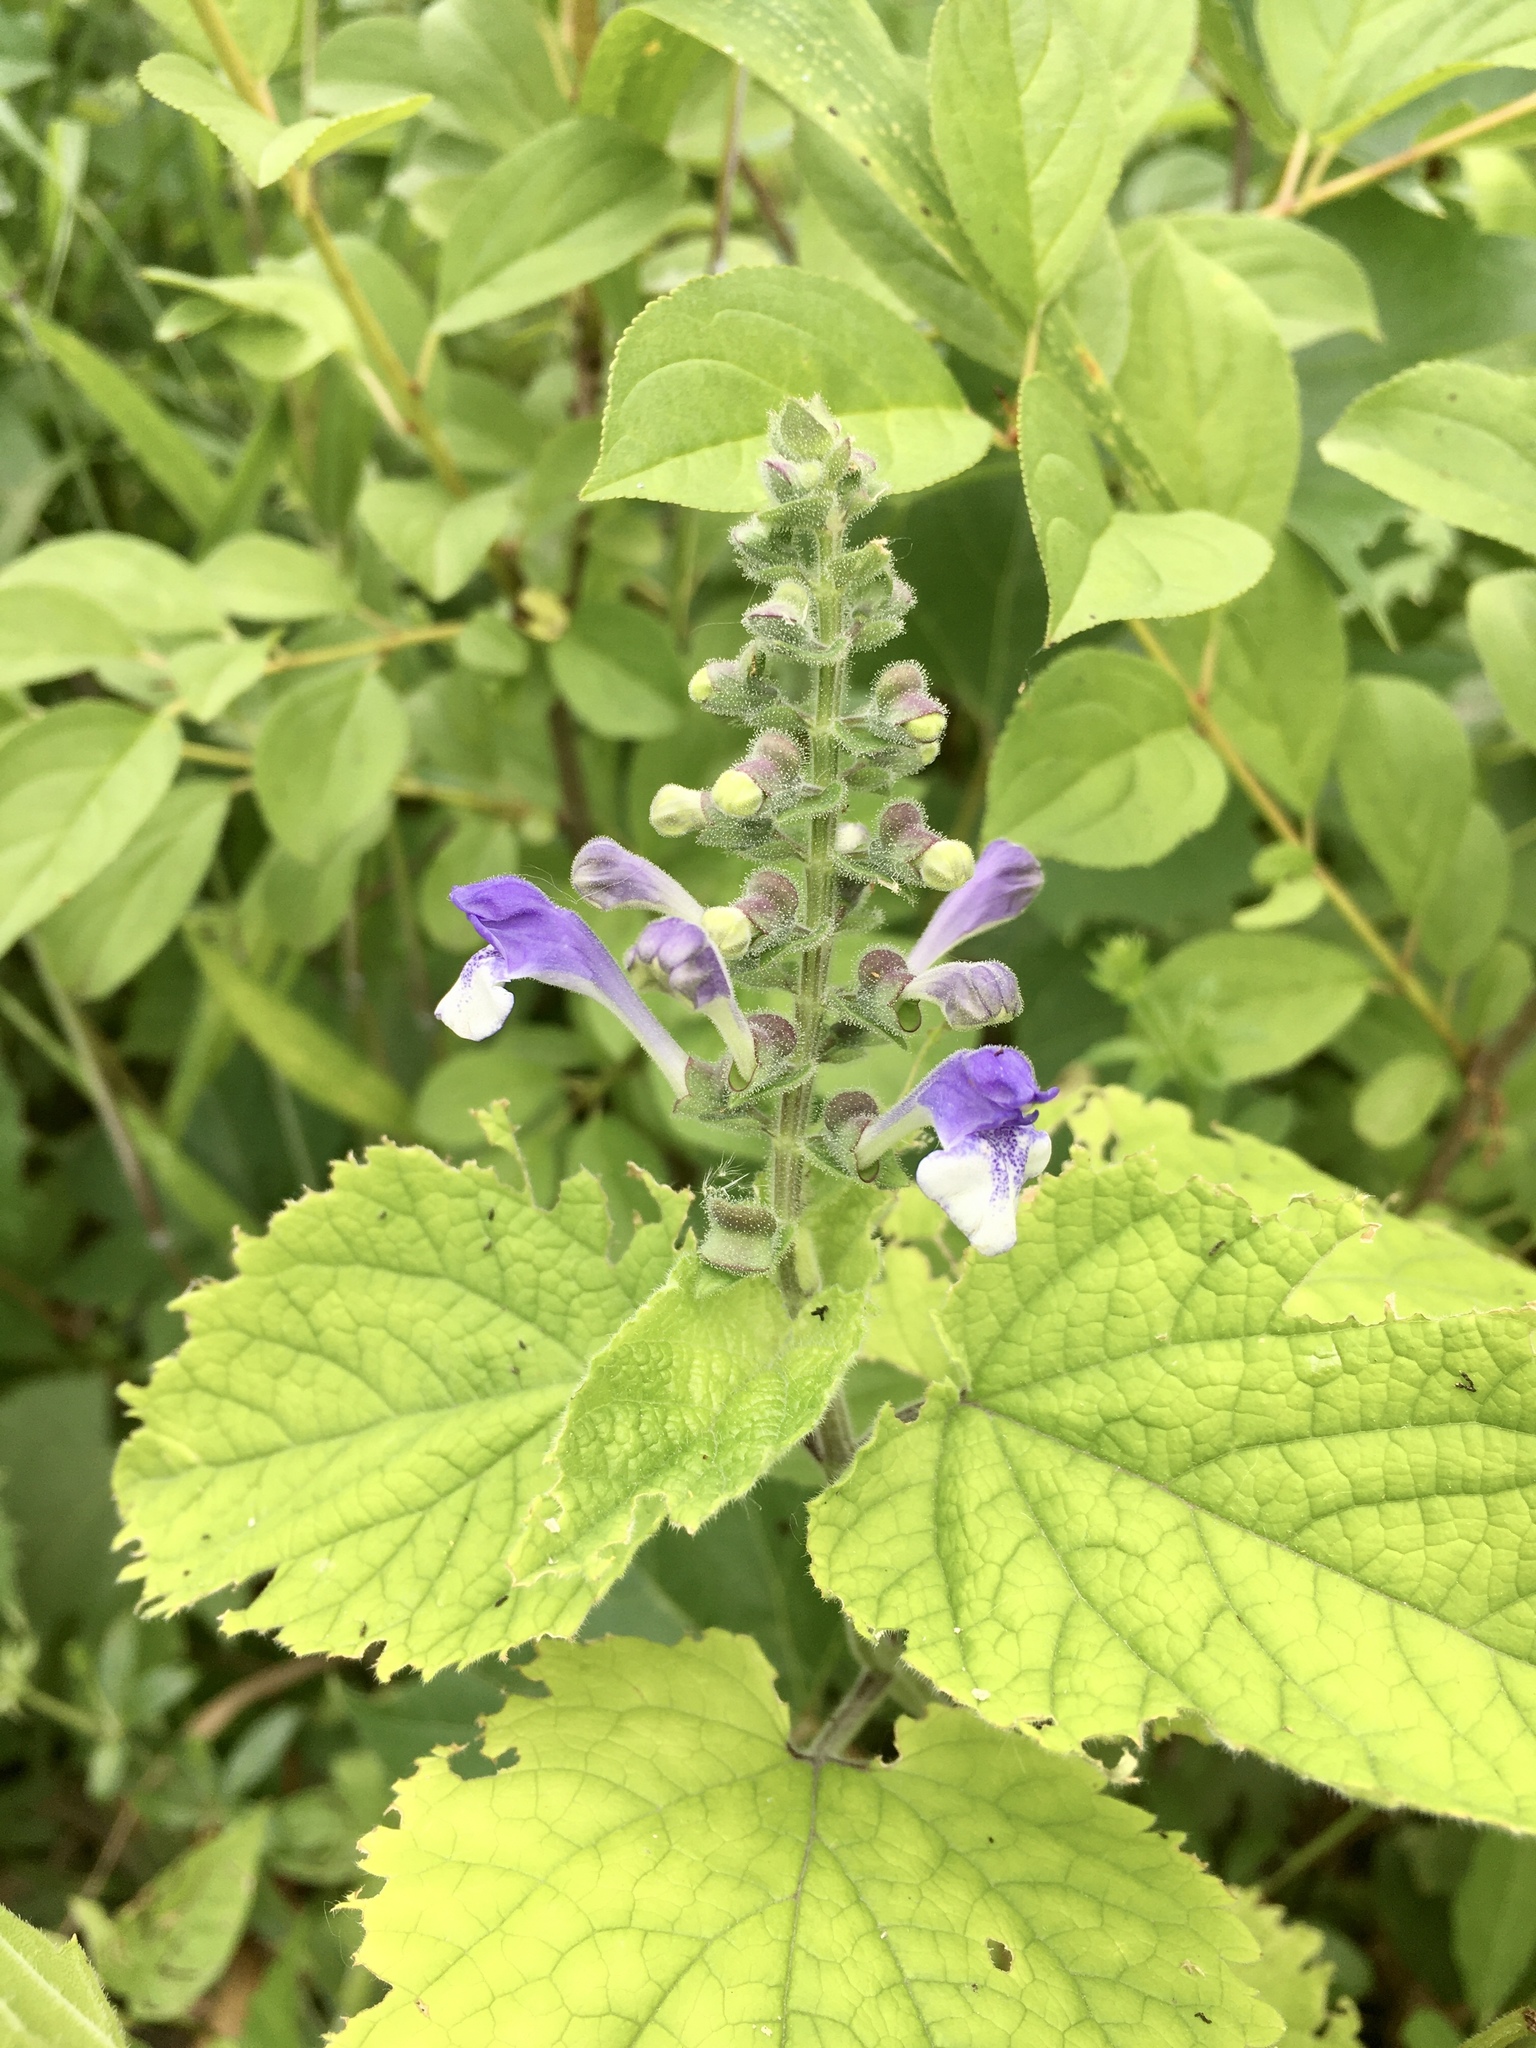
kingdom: Plantae
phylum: Tracheophyta
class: Magnoliopsida
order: Lamiales
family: Lamiaceae
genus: Scutellaria
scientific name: Scutellaria ovata
